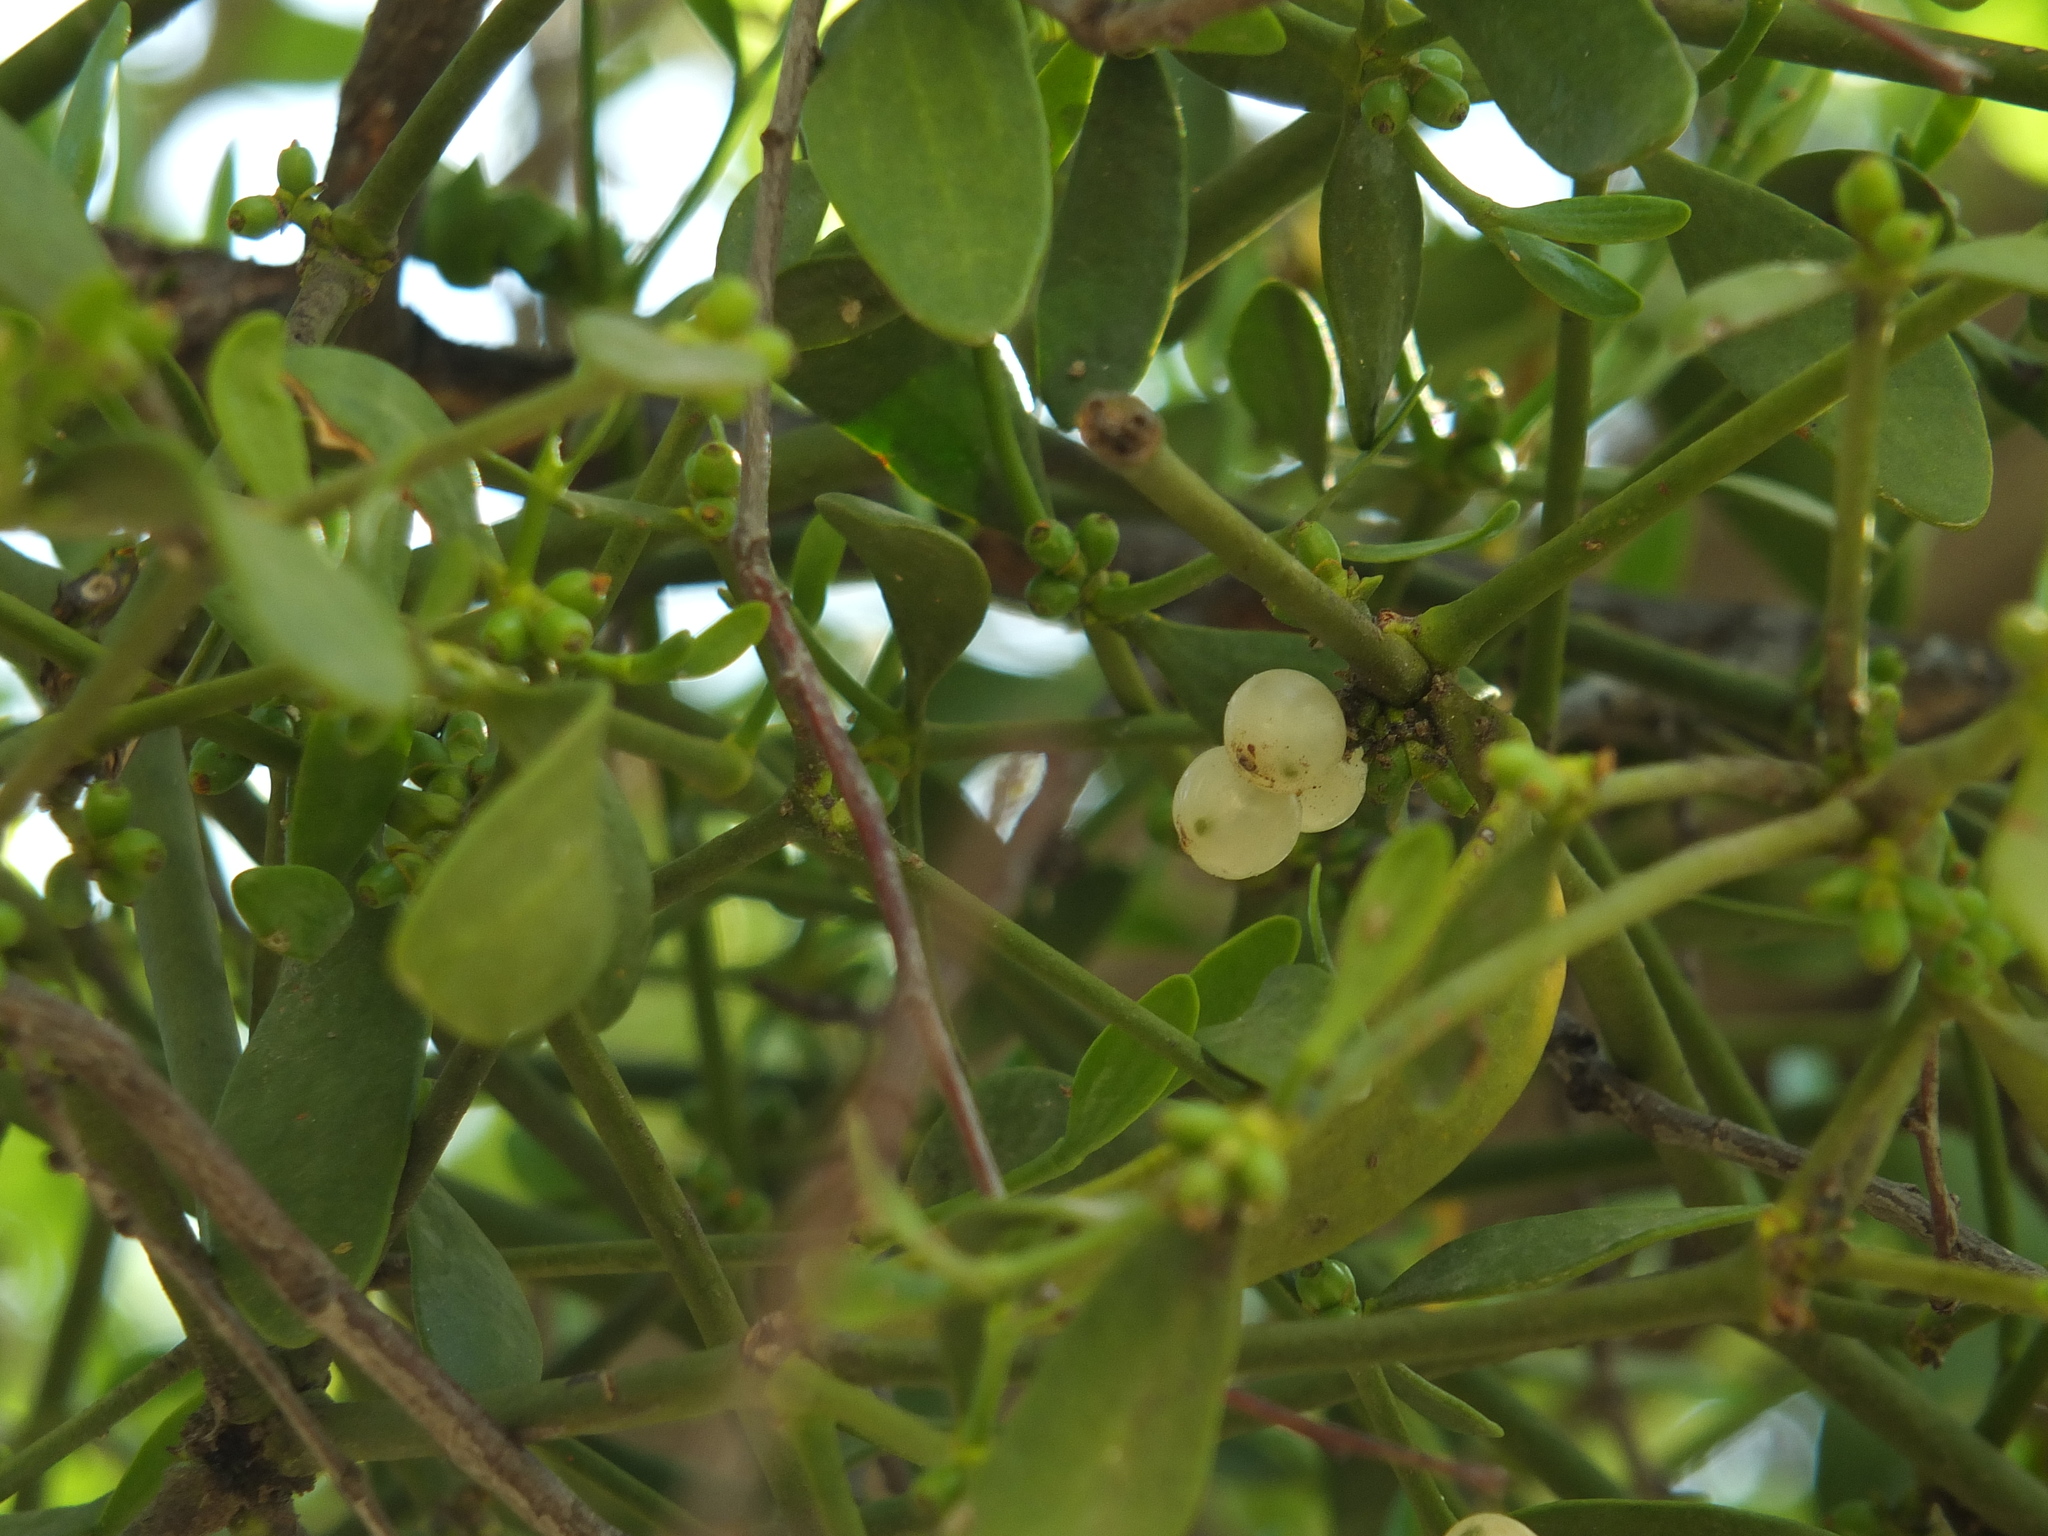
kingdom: Plantae
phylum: Tracheophyta
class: Magnoliopsida
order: Santalales
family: Viscaceae
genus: Viscum
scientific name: Viscum album
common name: Mistletoe
